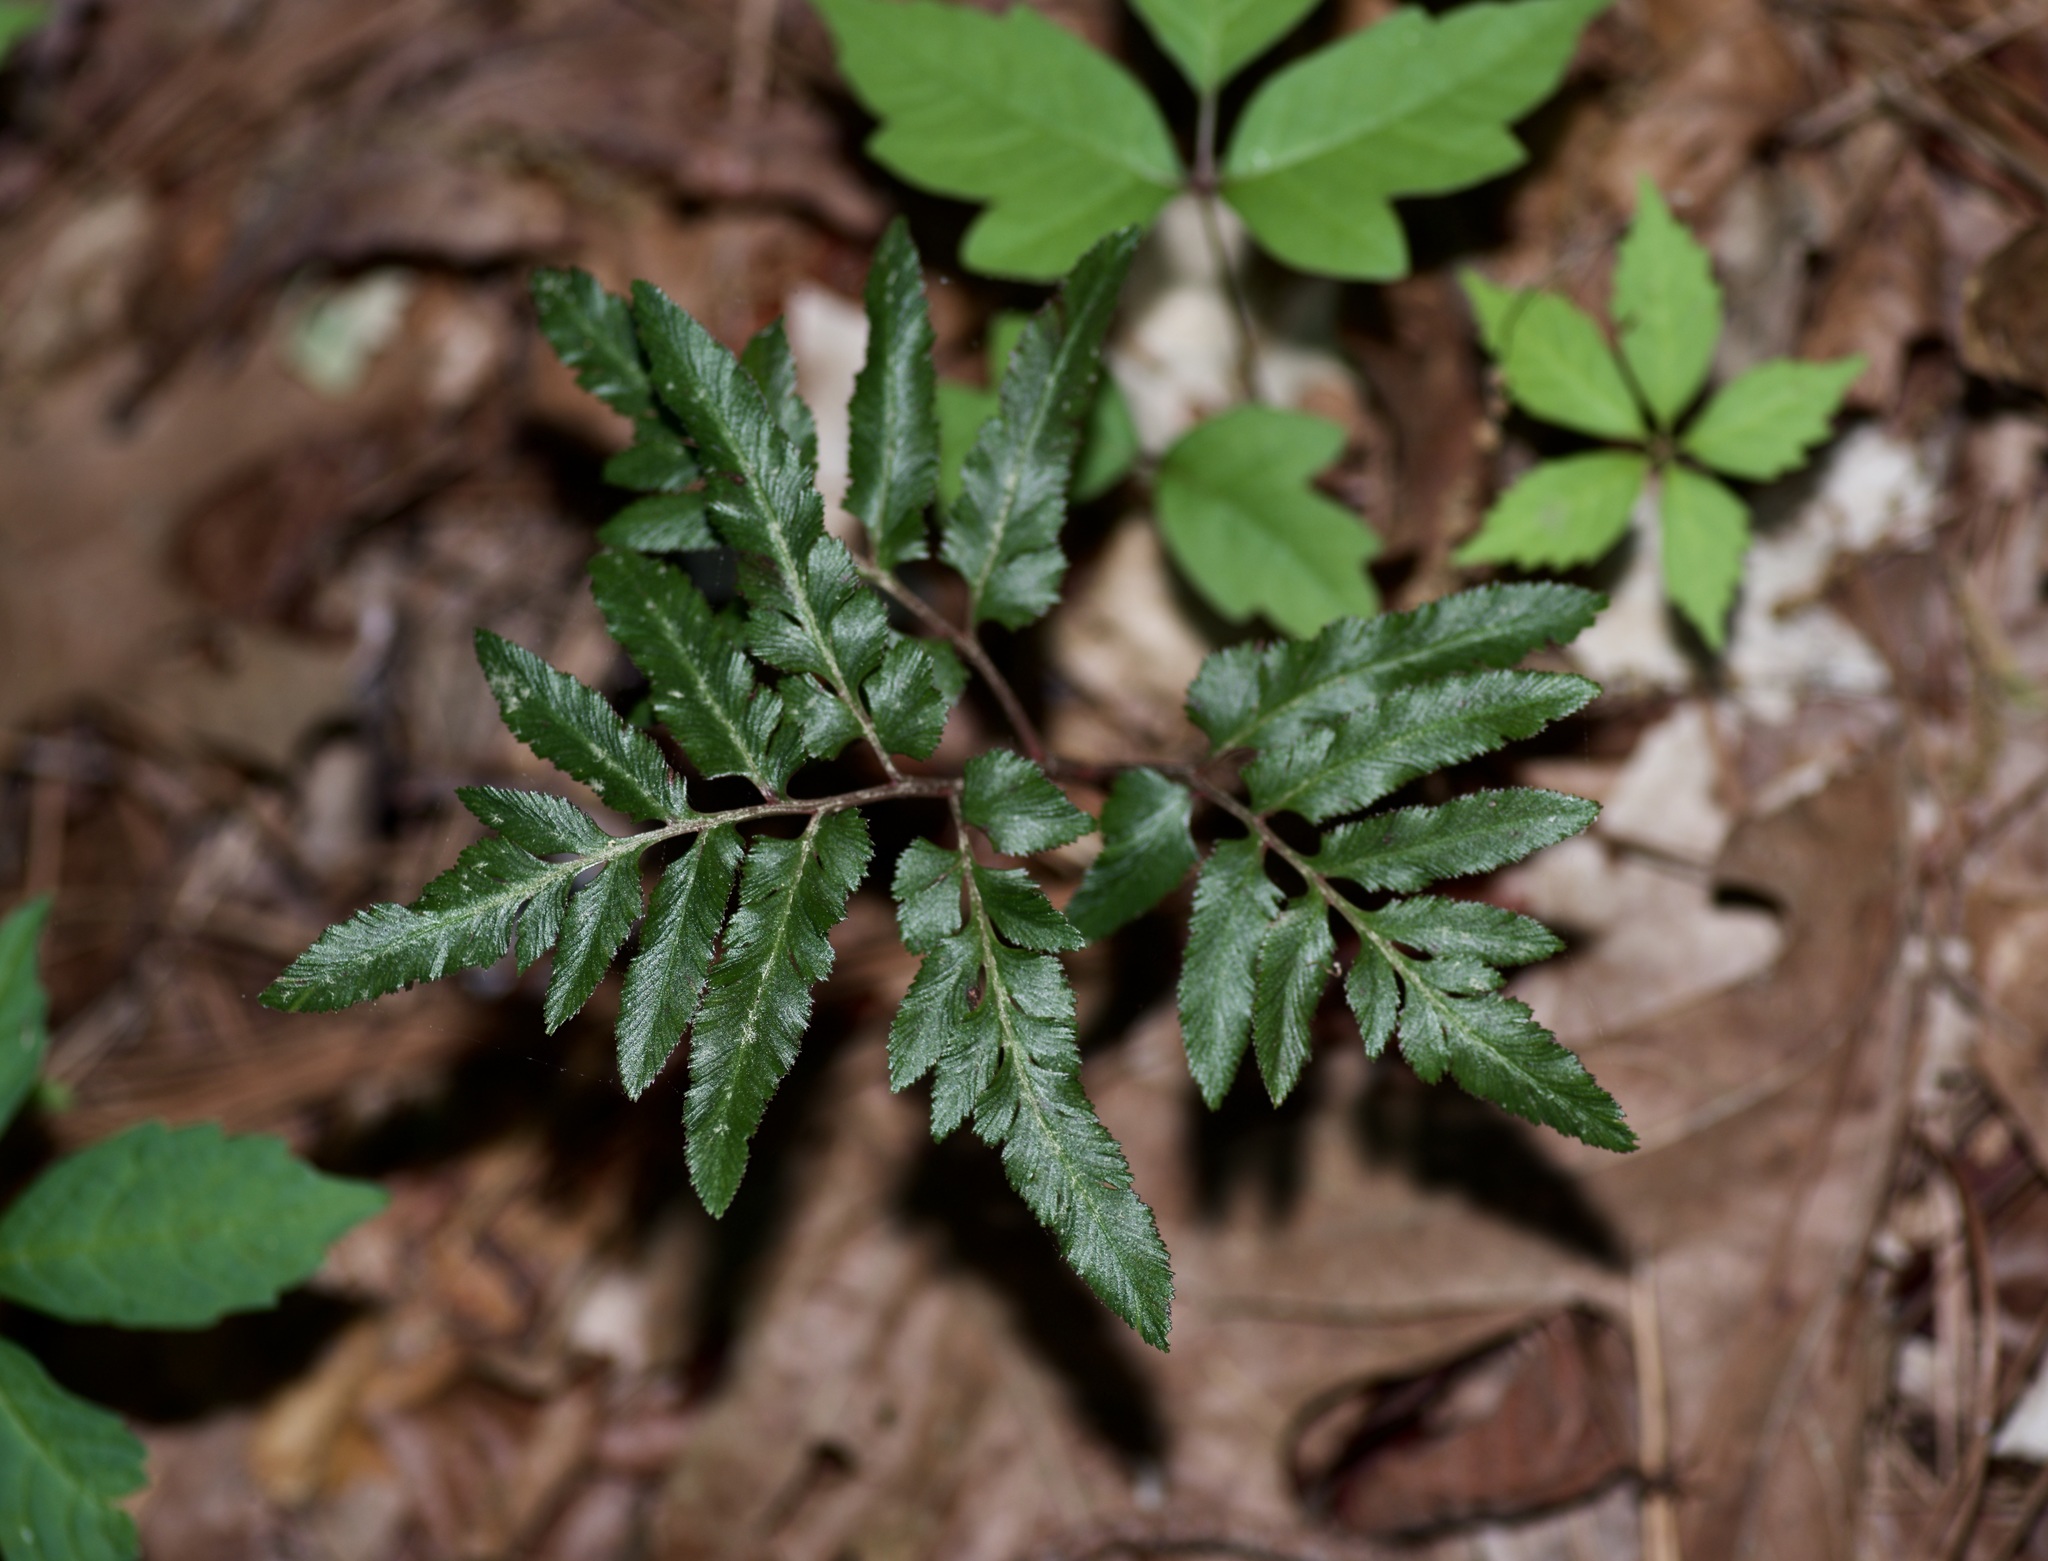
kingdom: Plantae
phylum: Tracheophyta
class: Polypodiopsida
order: Ophioglossales
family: Ophioglossaceae
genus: Sceptridium
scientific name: Sceptridium biternatum
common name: Sparse-lobed grapefern
